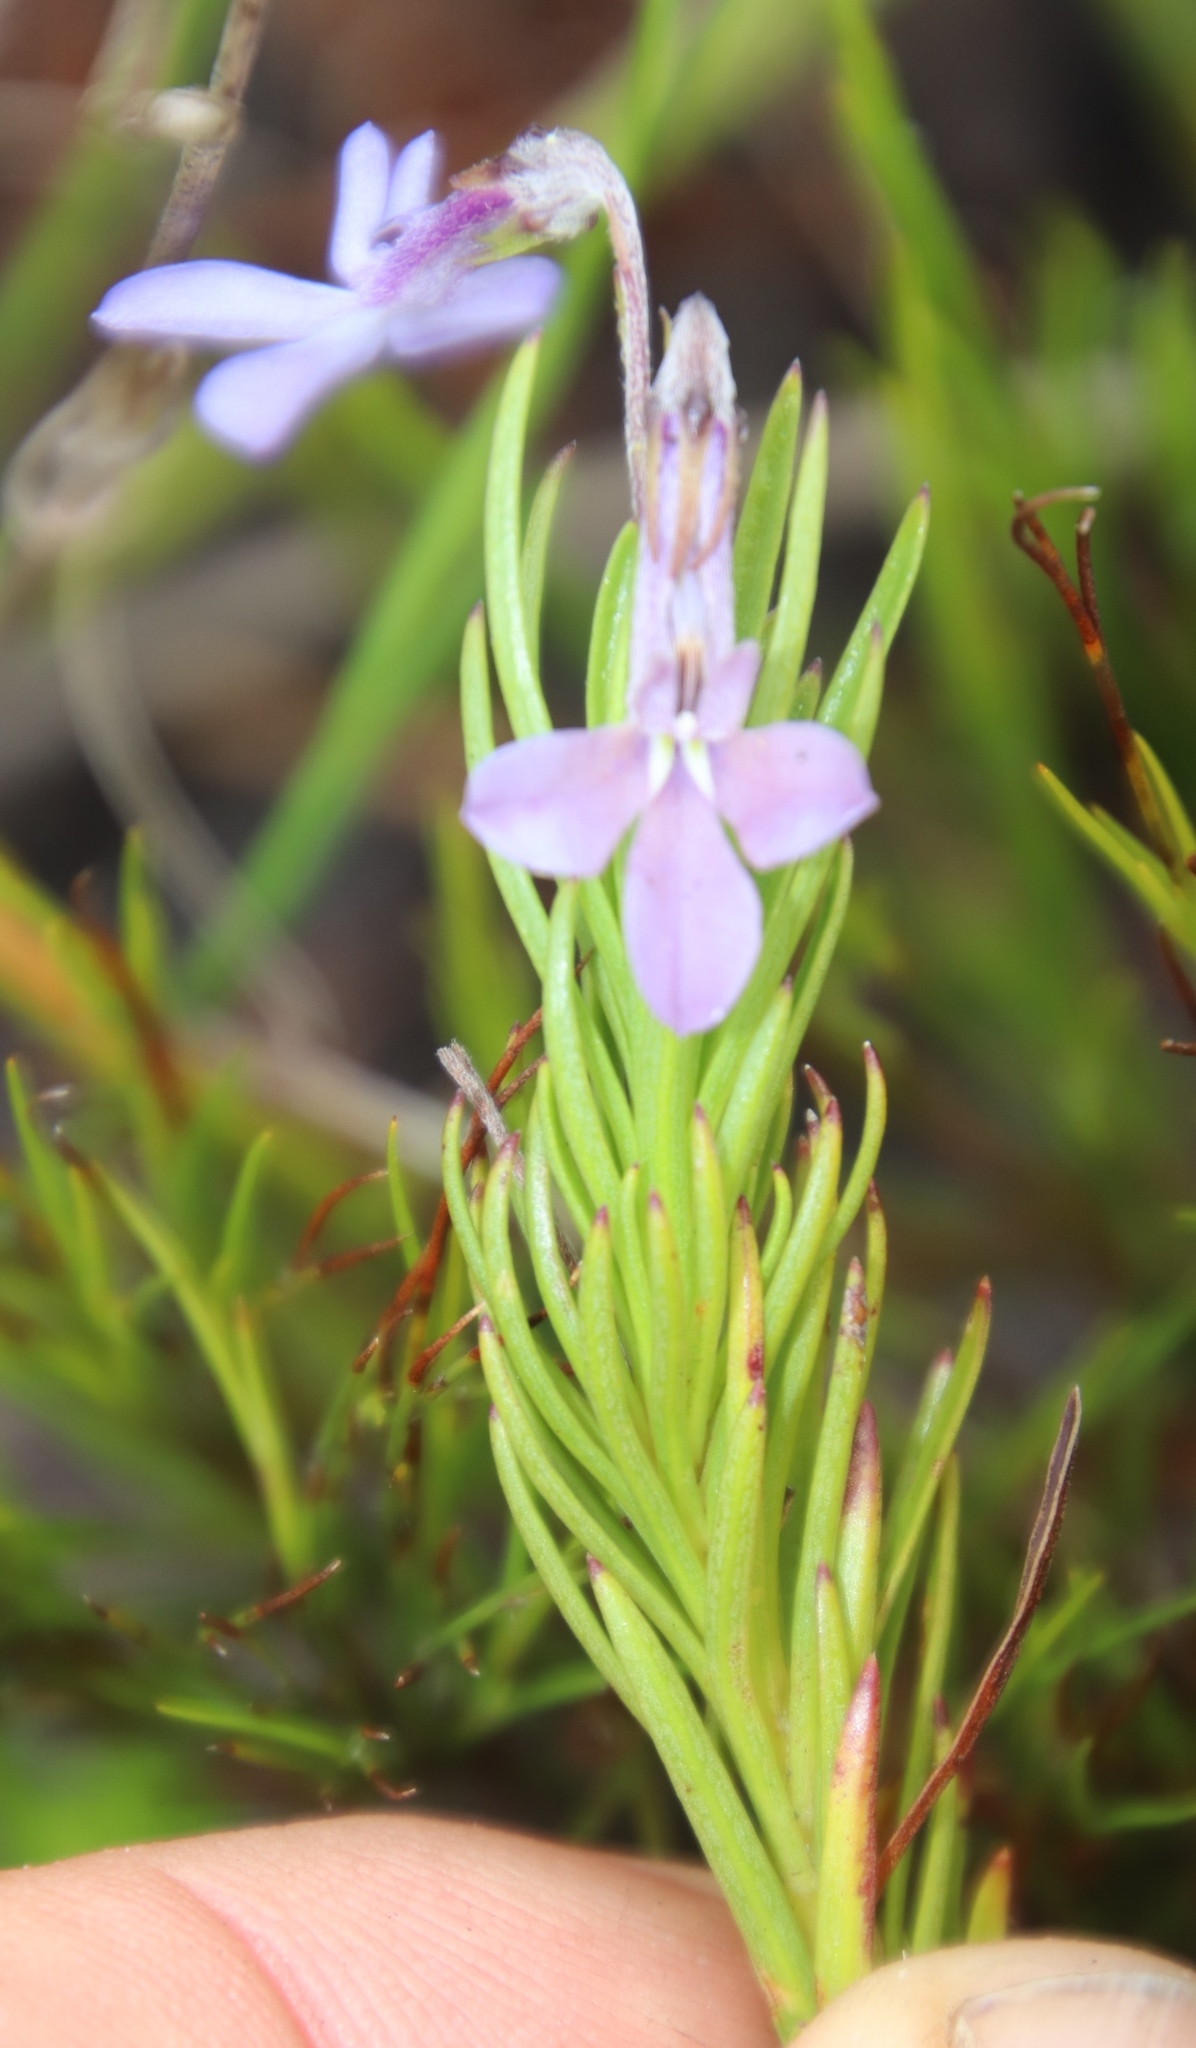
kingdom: Plantae
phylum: Tracheophyta
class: Magnoliopsida
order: Asterales
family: Campanulaceae
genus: Lobelia
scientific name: Lobelia pinifolia
